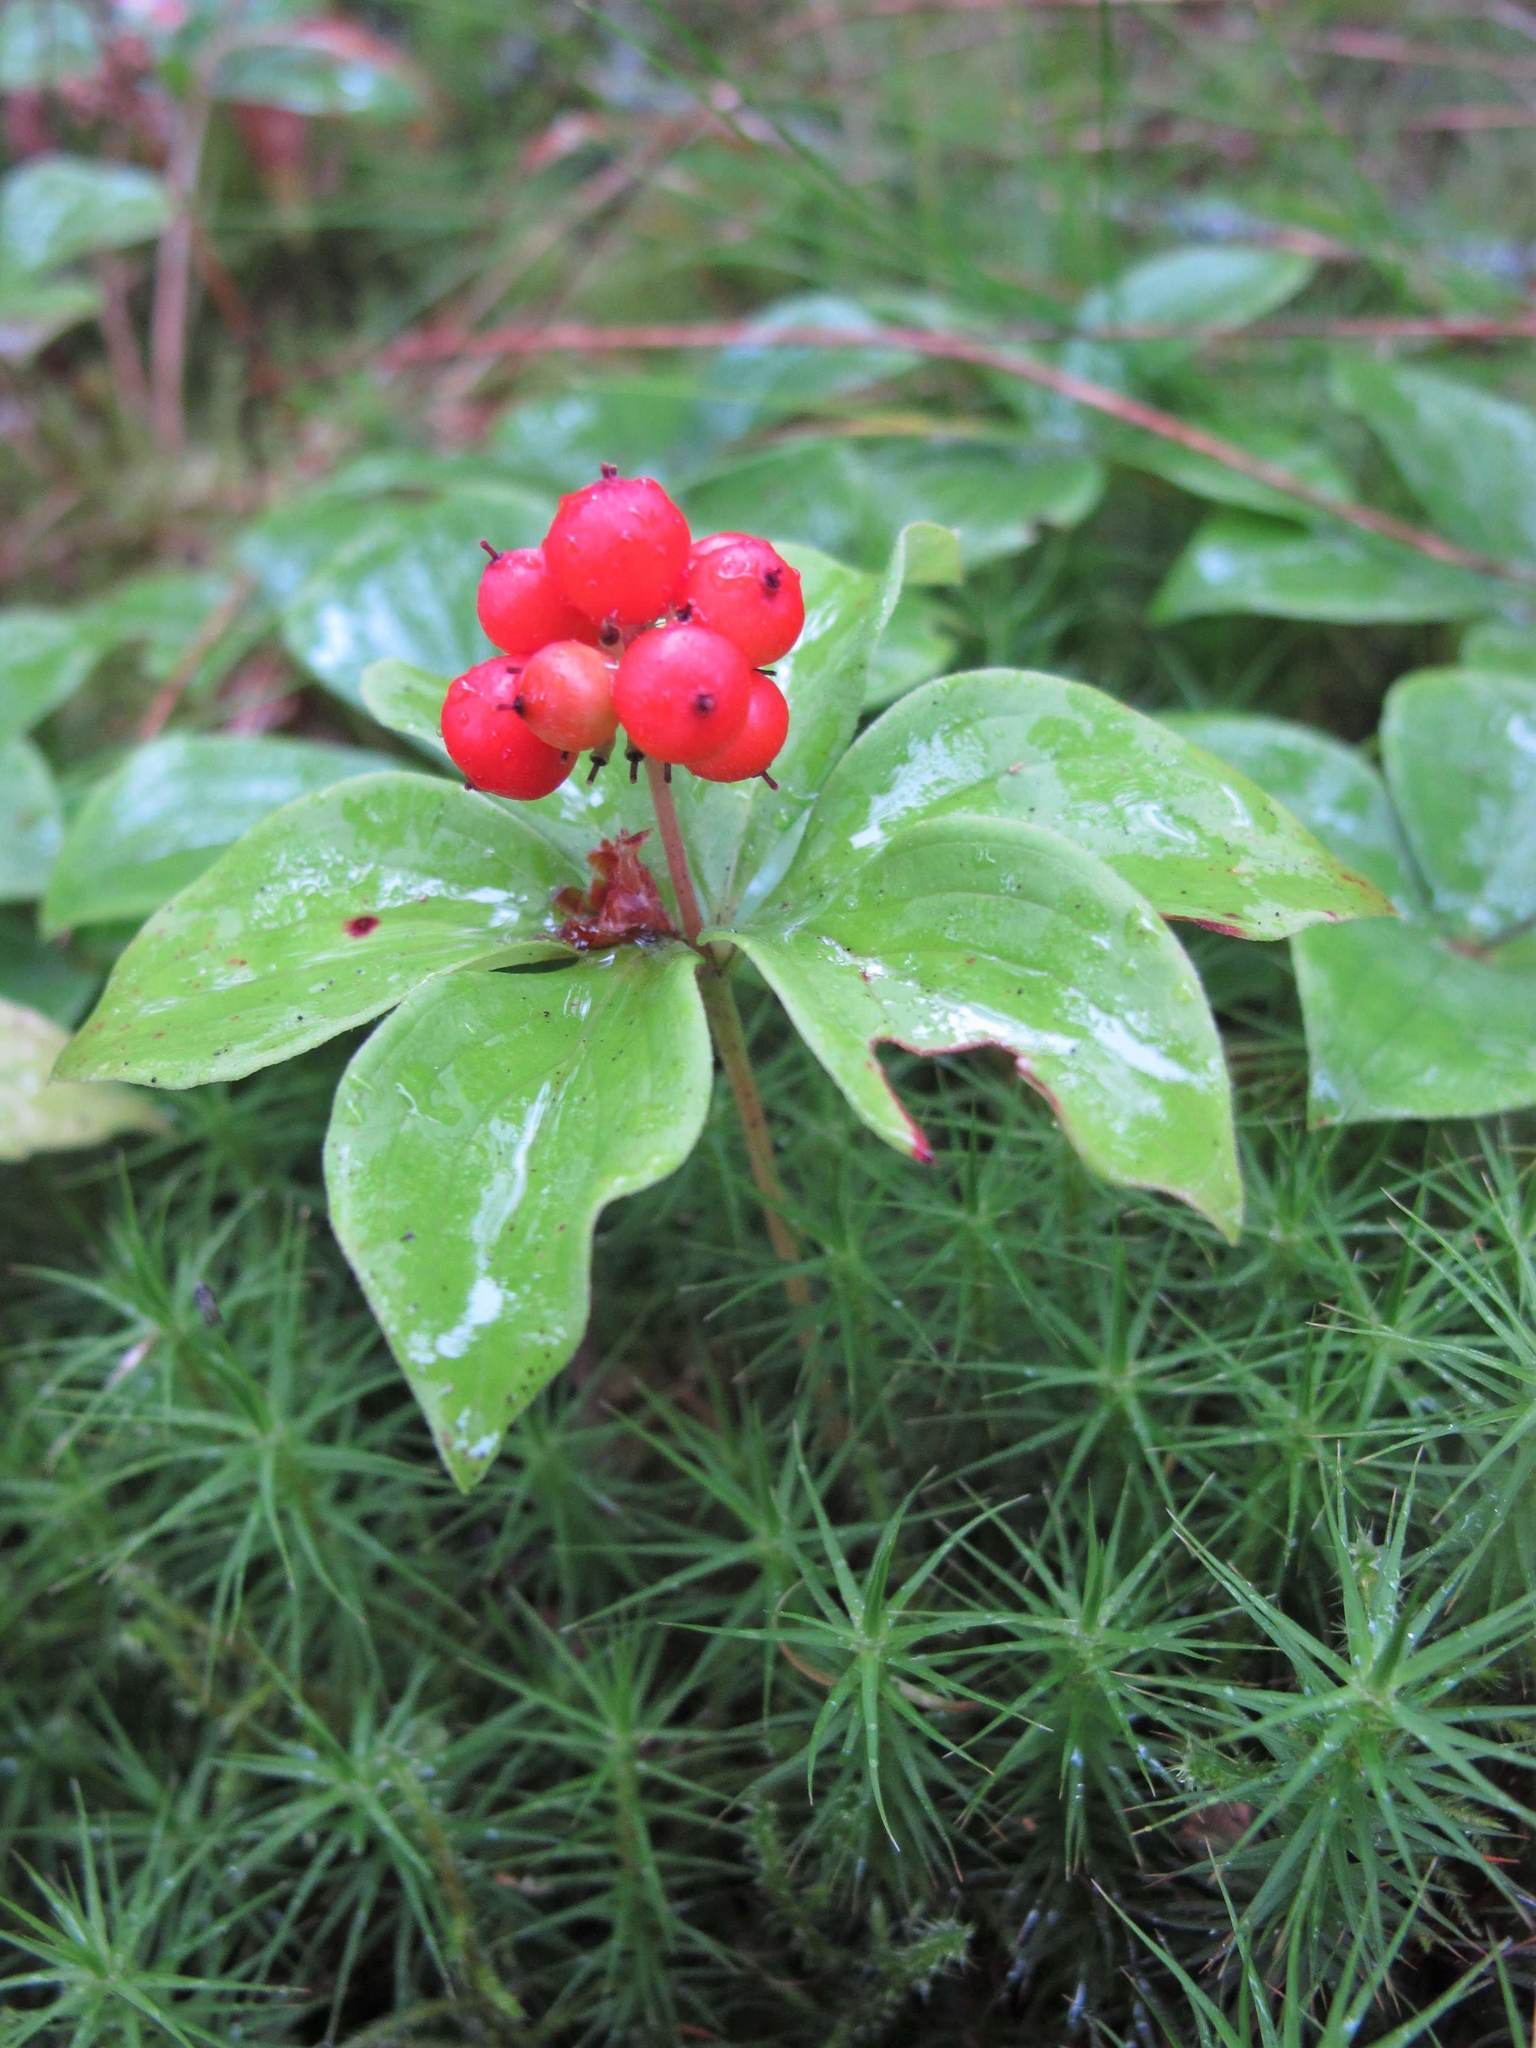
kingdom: Plantae
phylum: Tracheophyta
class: Magnoliopsida
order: Cornales
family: Cornaceae
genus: Cornus
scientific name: Cornus canadensis
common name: Creeping dogwood
